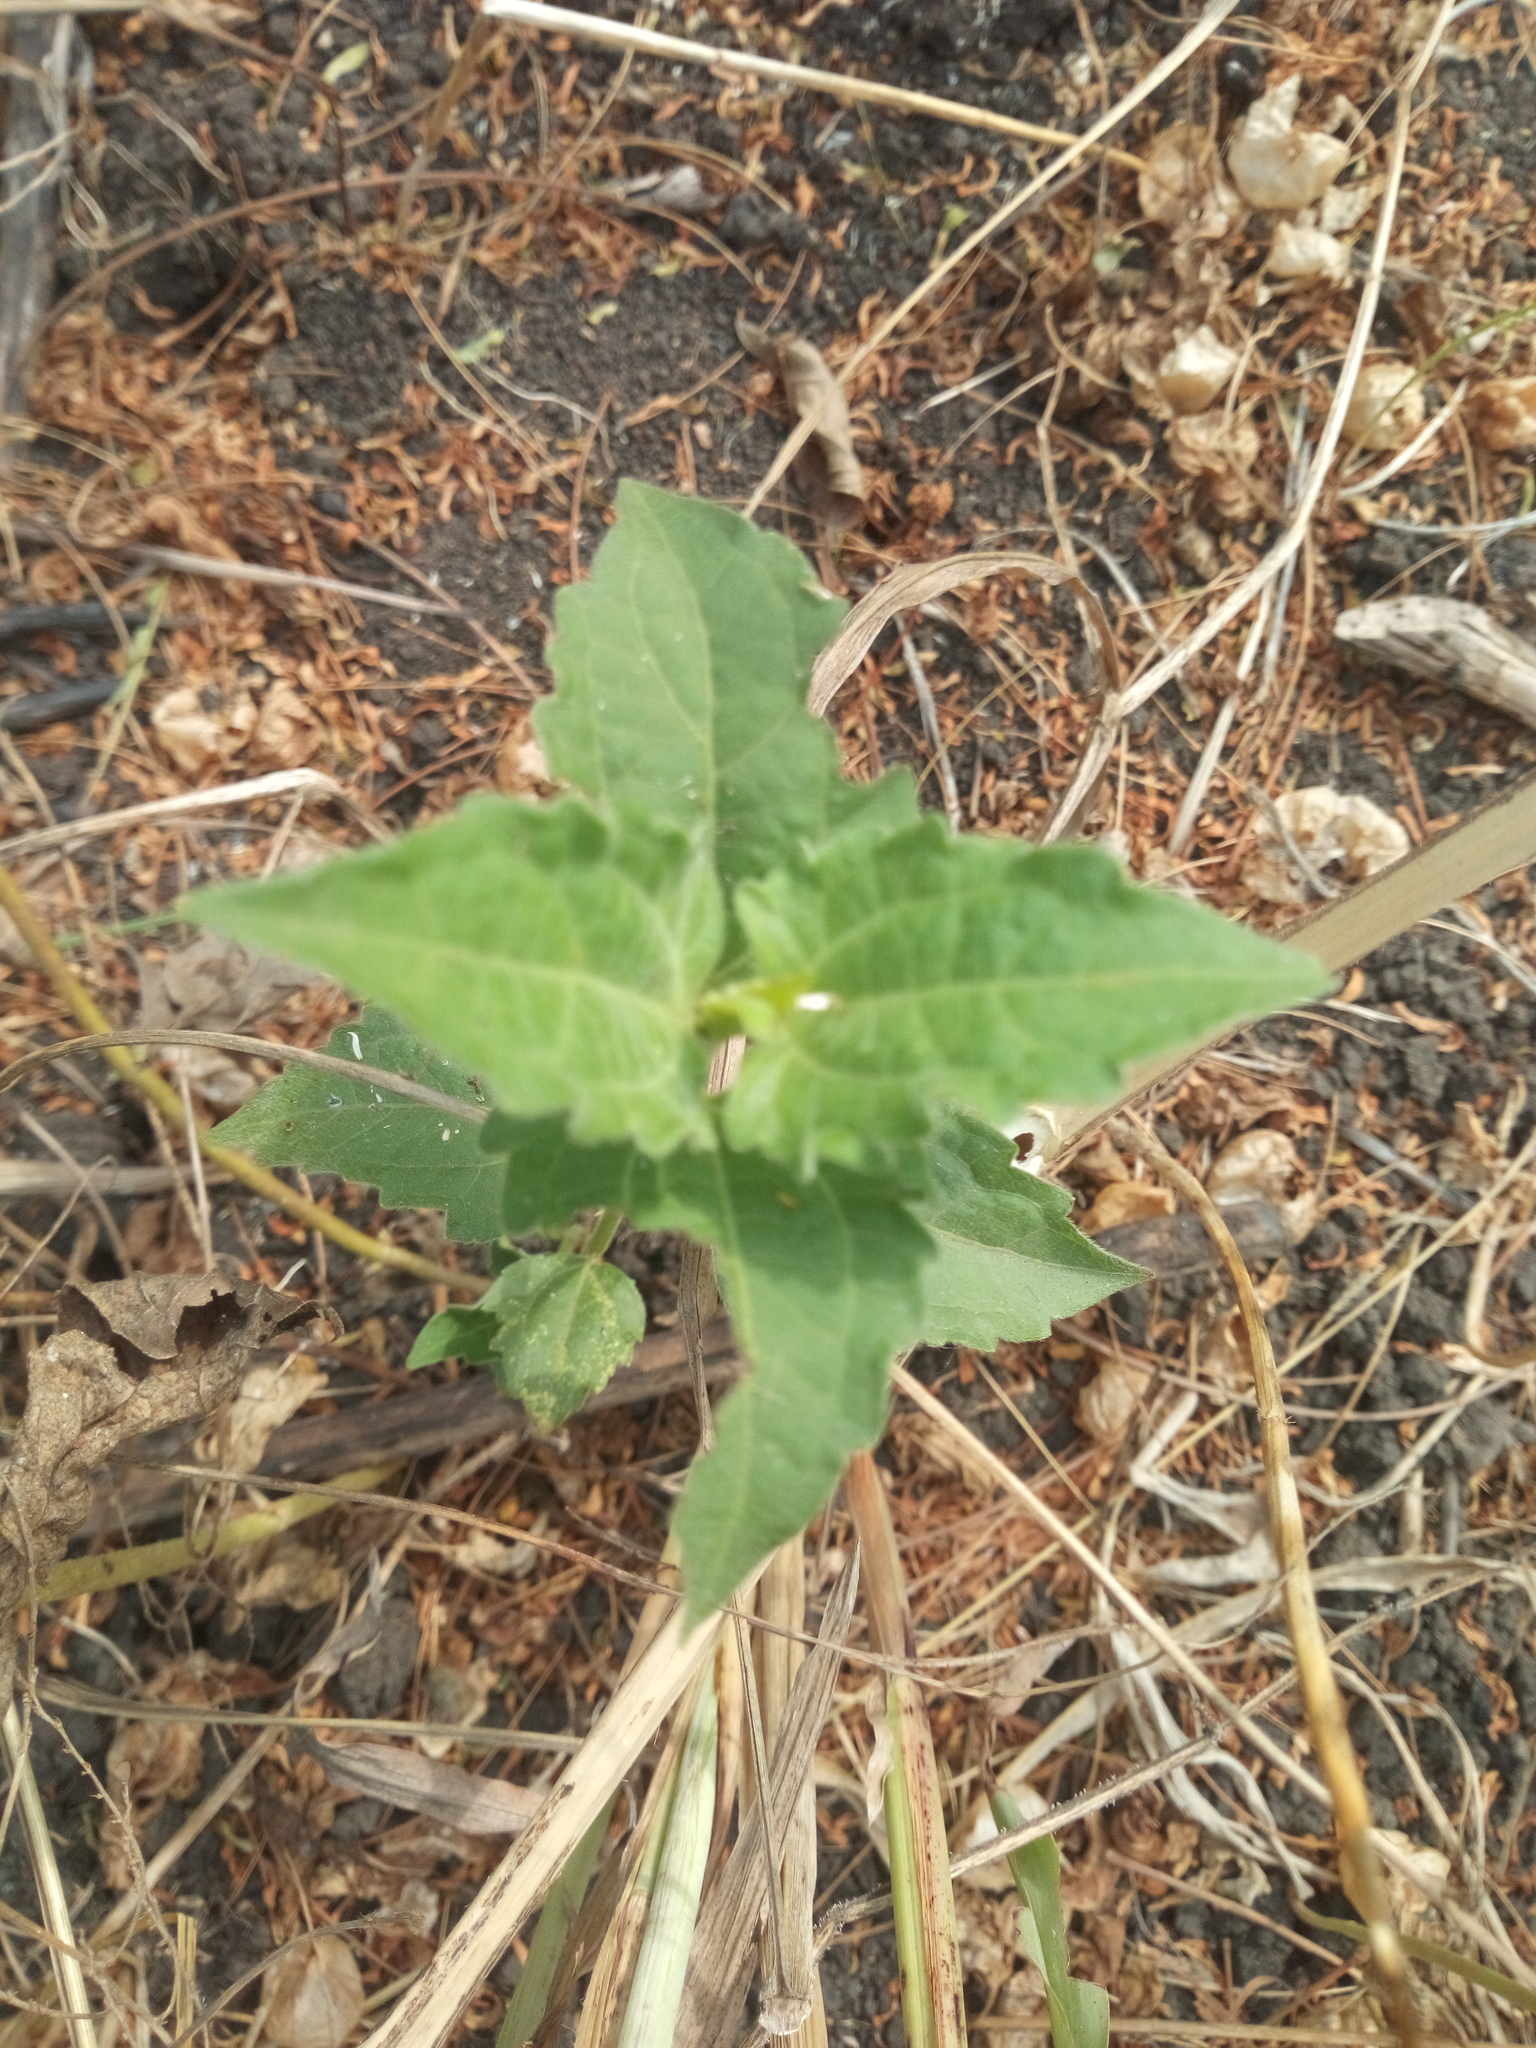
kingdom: Plantae
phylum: Tracheophyta
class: Magnoliopsida
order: Asterales
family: Asteraceae
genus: Chromolaena
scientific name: Chromolaena odorata
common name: Siamweed
